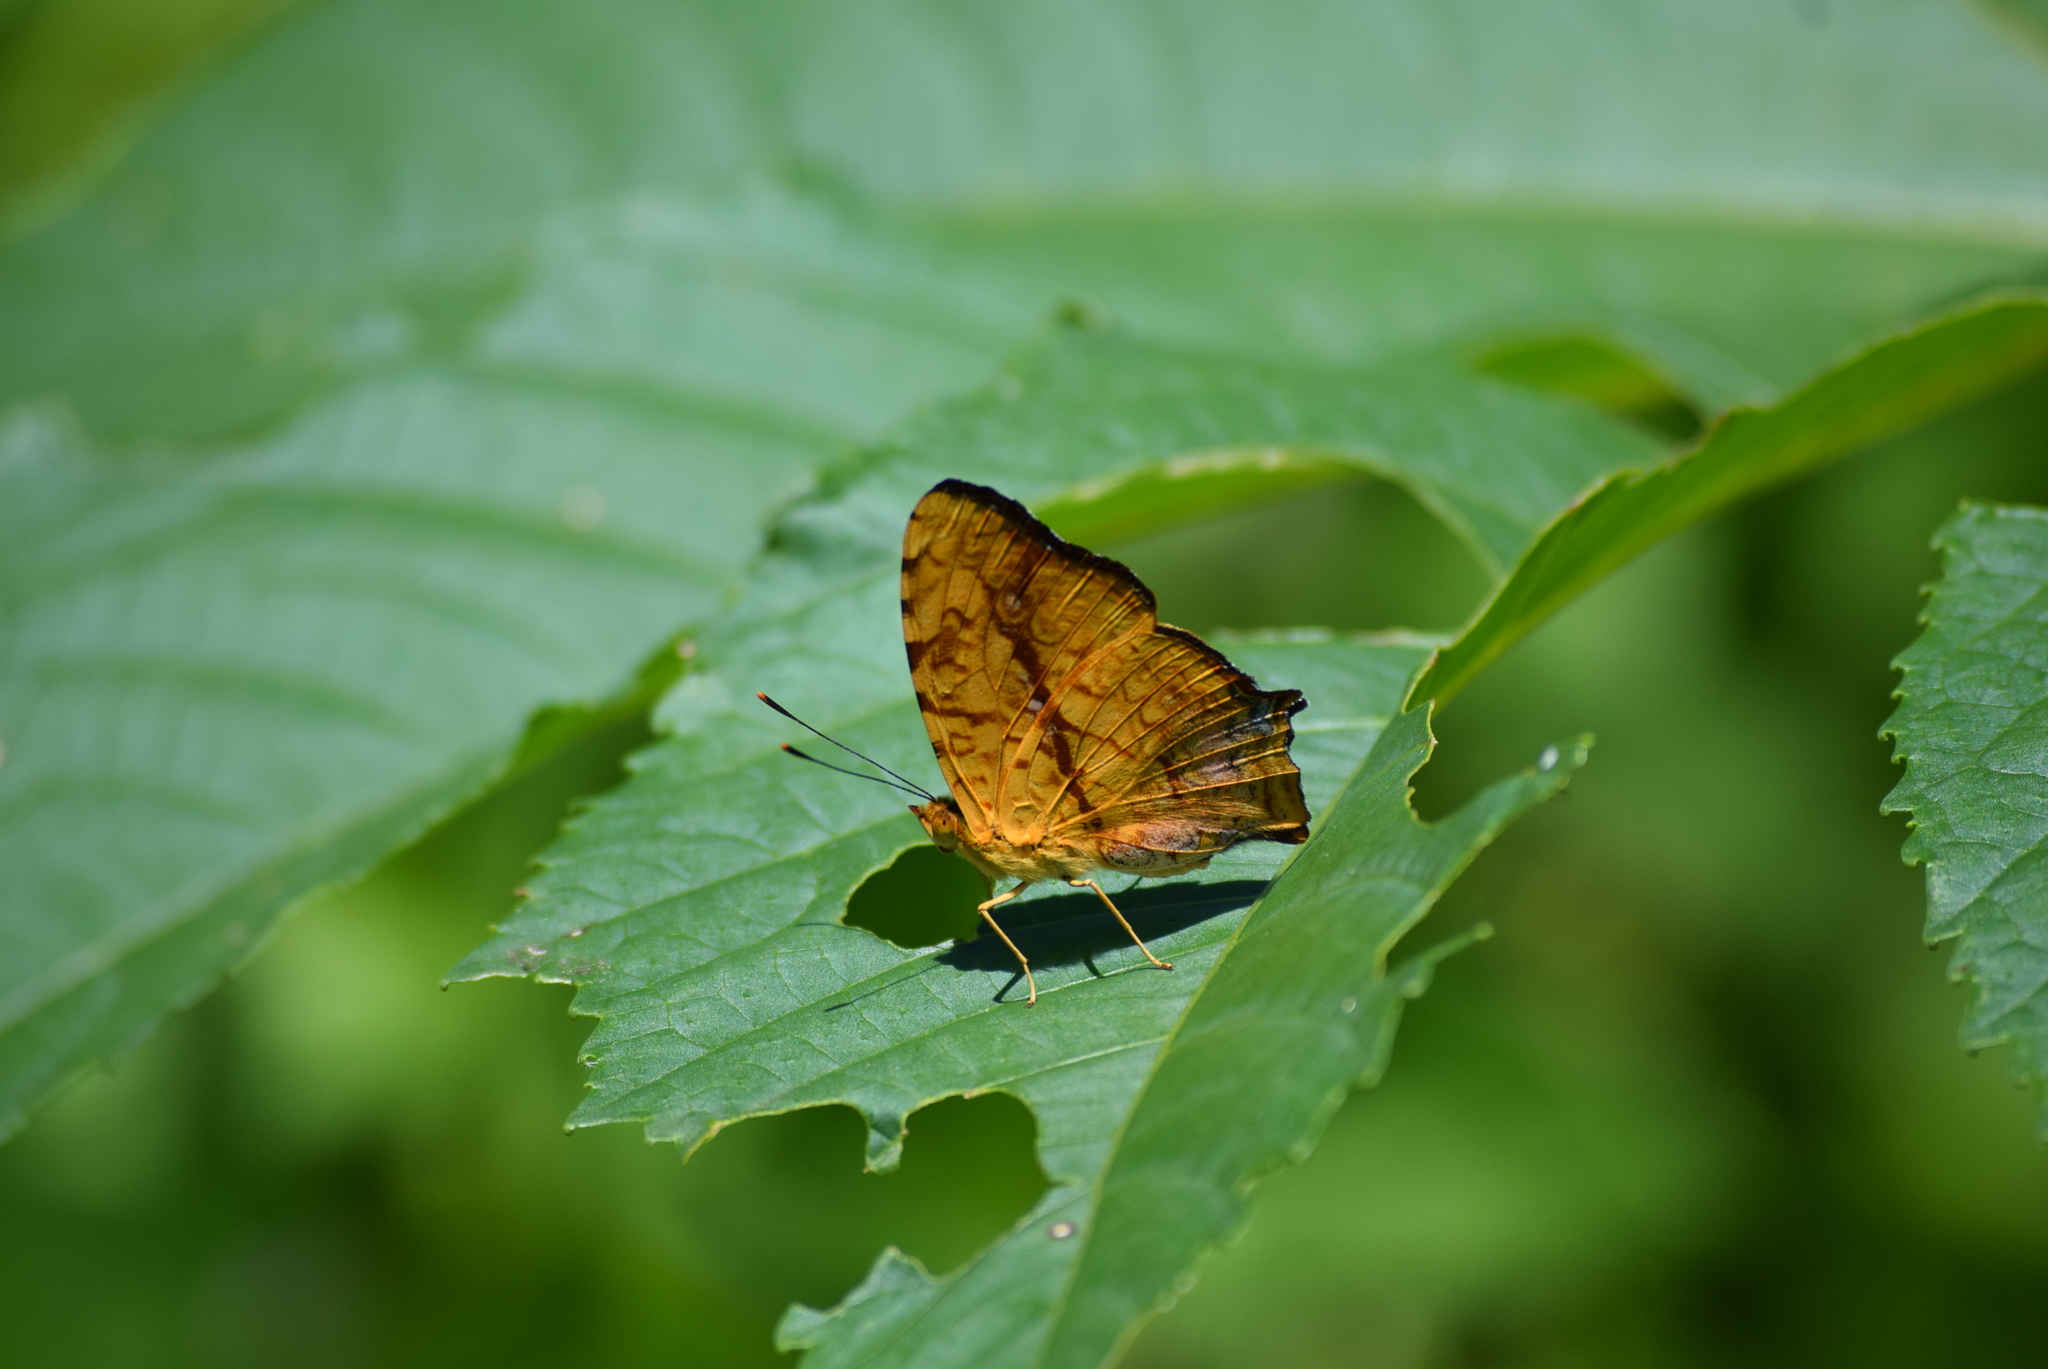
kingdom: Animalia
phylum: Arthropoda
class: Insecta
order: Lepidoptera
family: Nymphalidae
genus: Symbrenthia
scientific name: Symbrenthia hypselis
